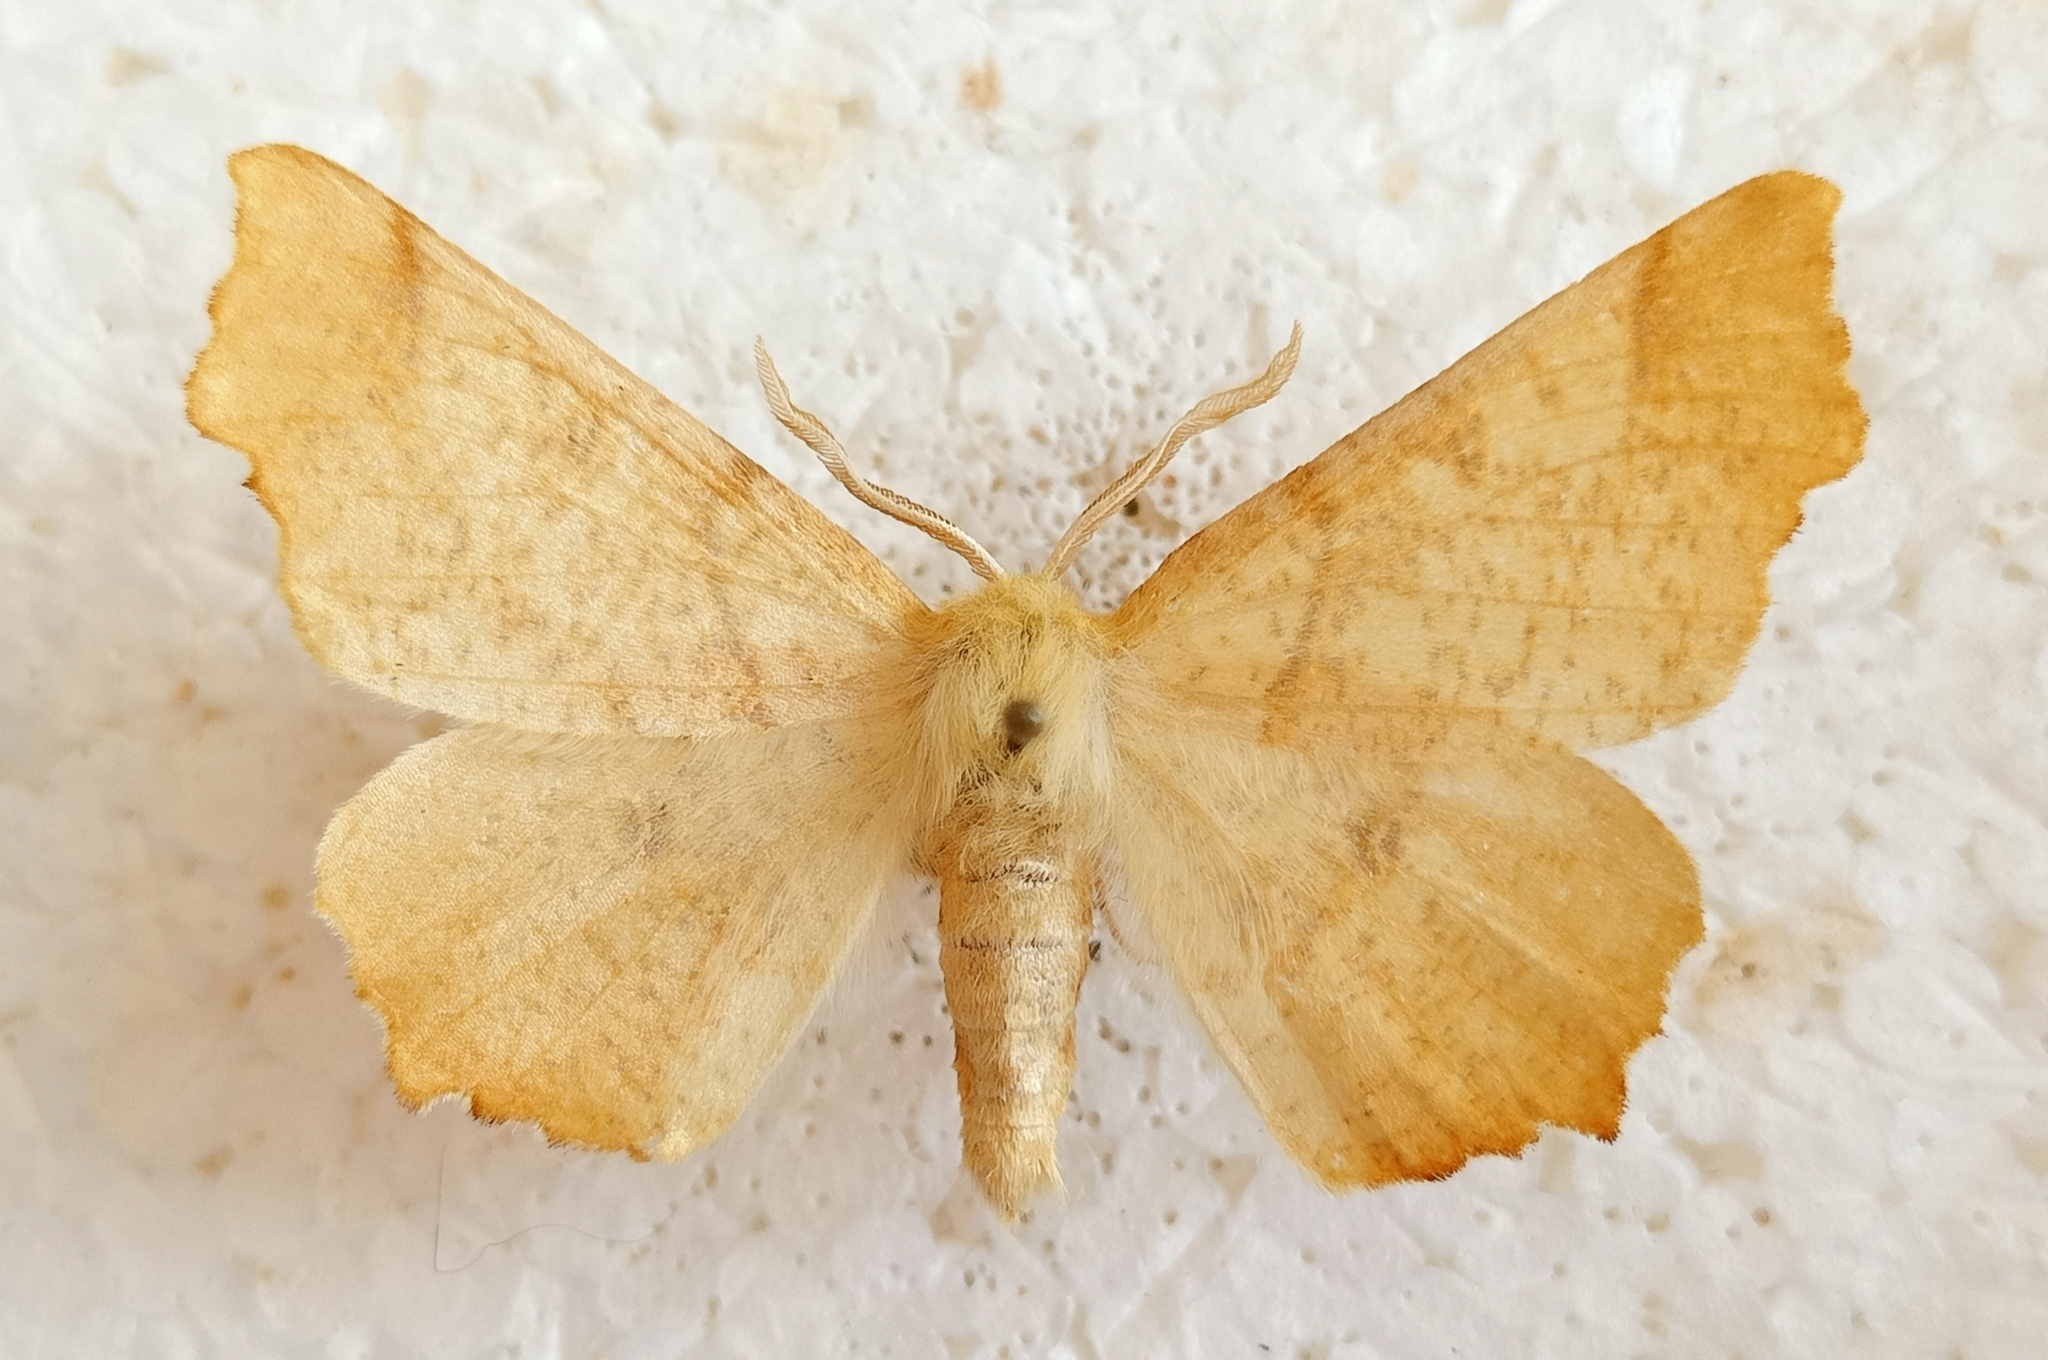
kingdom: Animalia
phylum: Arthropoda
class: Insecta
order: Lepidoptera
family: Geometridae
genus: Ennomos
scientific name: Ennomos autumnaria
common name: Large thorn
